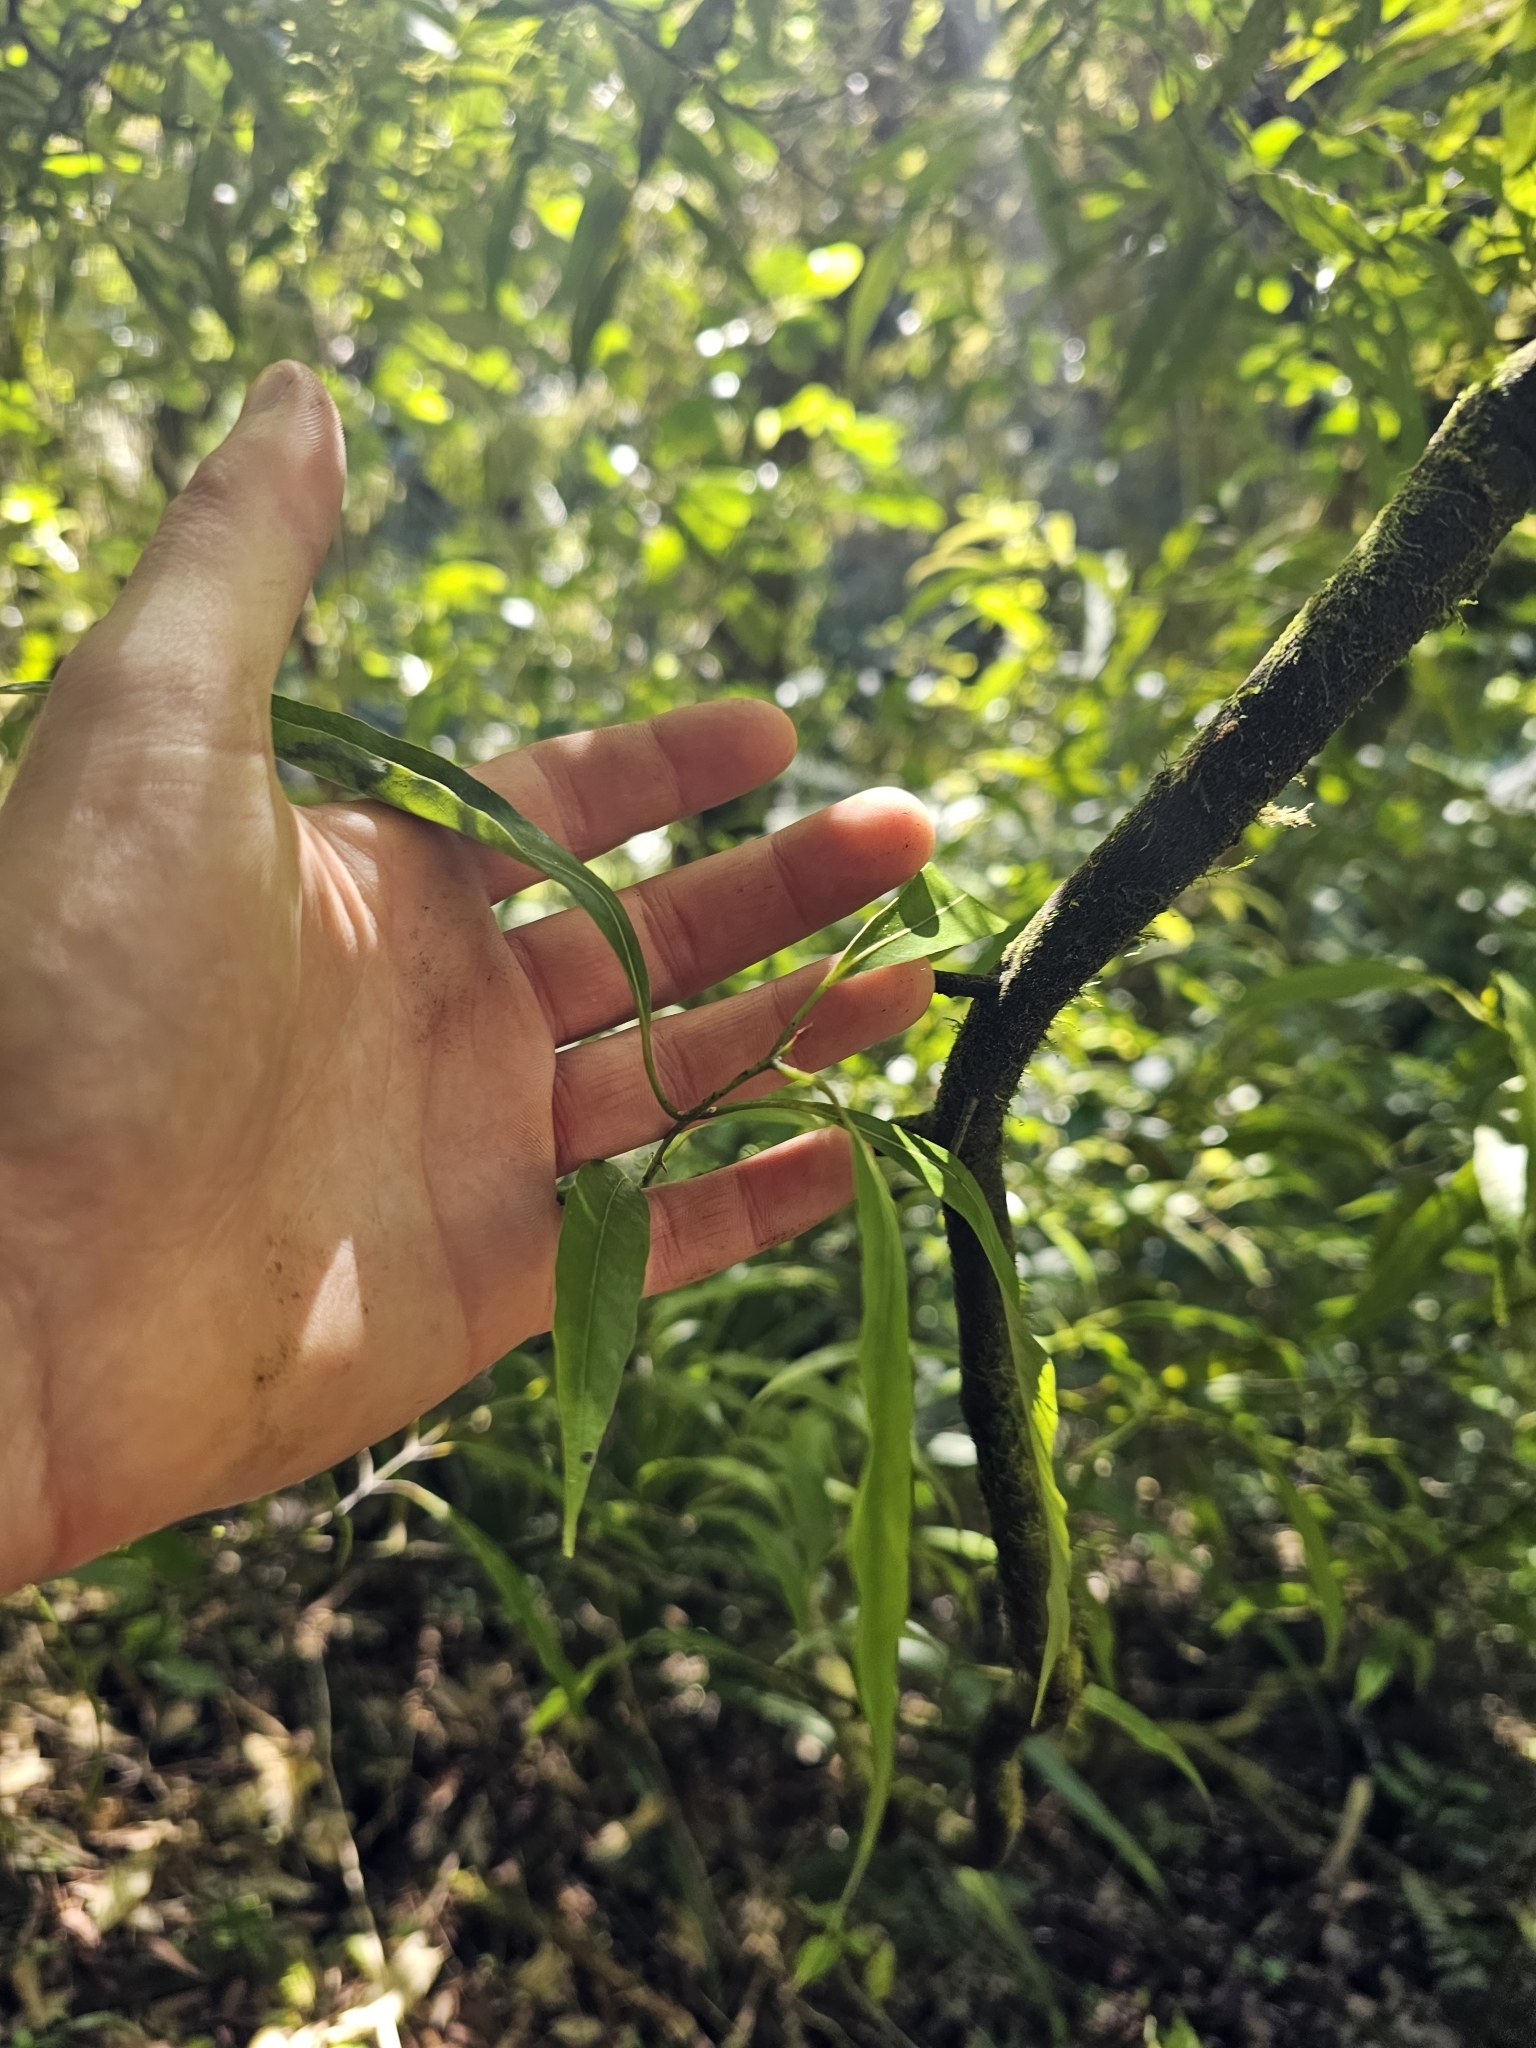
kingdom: Plantae
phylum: Tracheophyta
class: Magnoliopsida
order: Laurales
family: Lauraceae
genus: Beilschmiedia
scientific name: Beilschmiedia tawa
